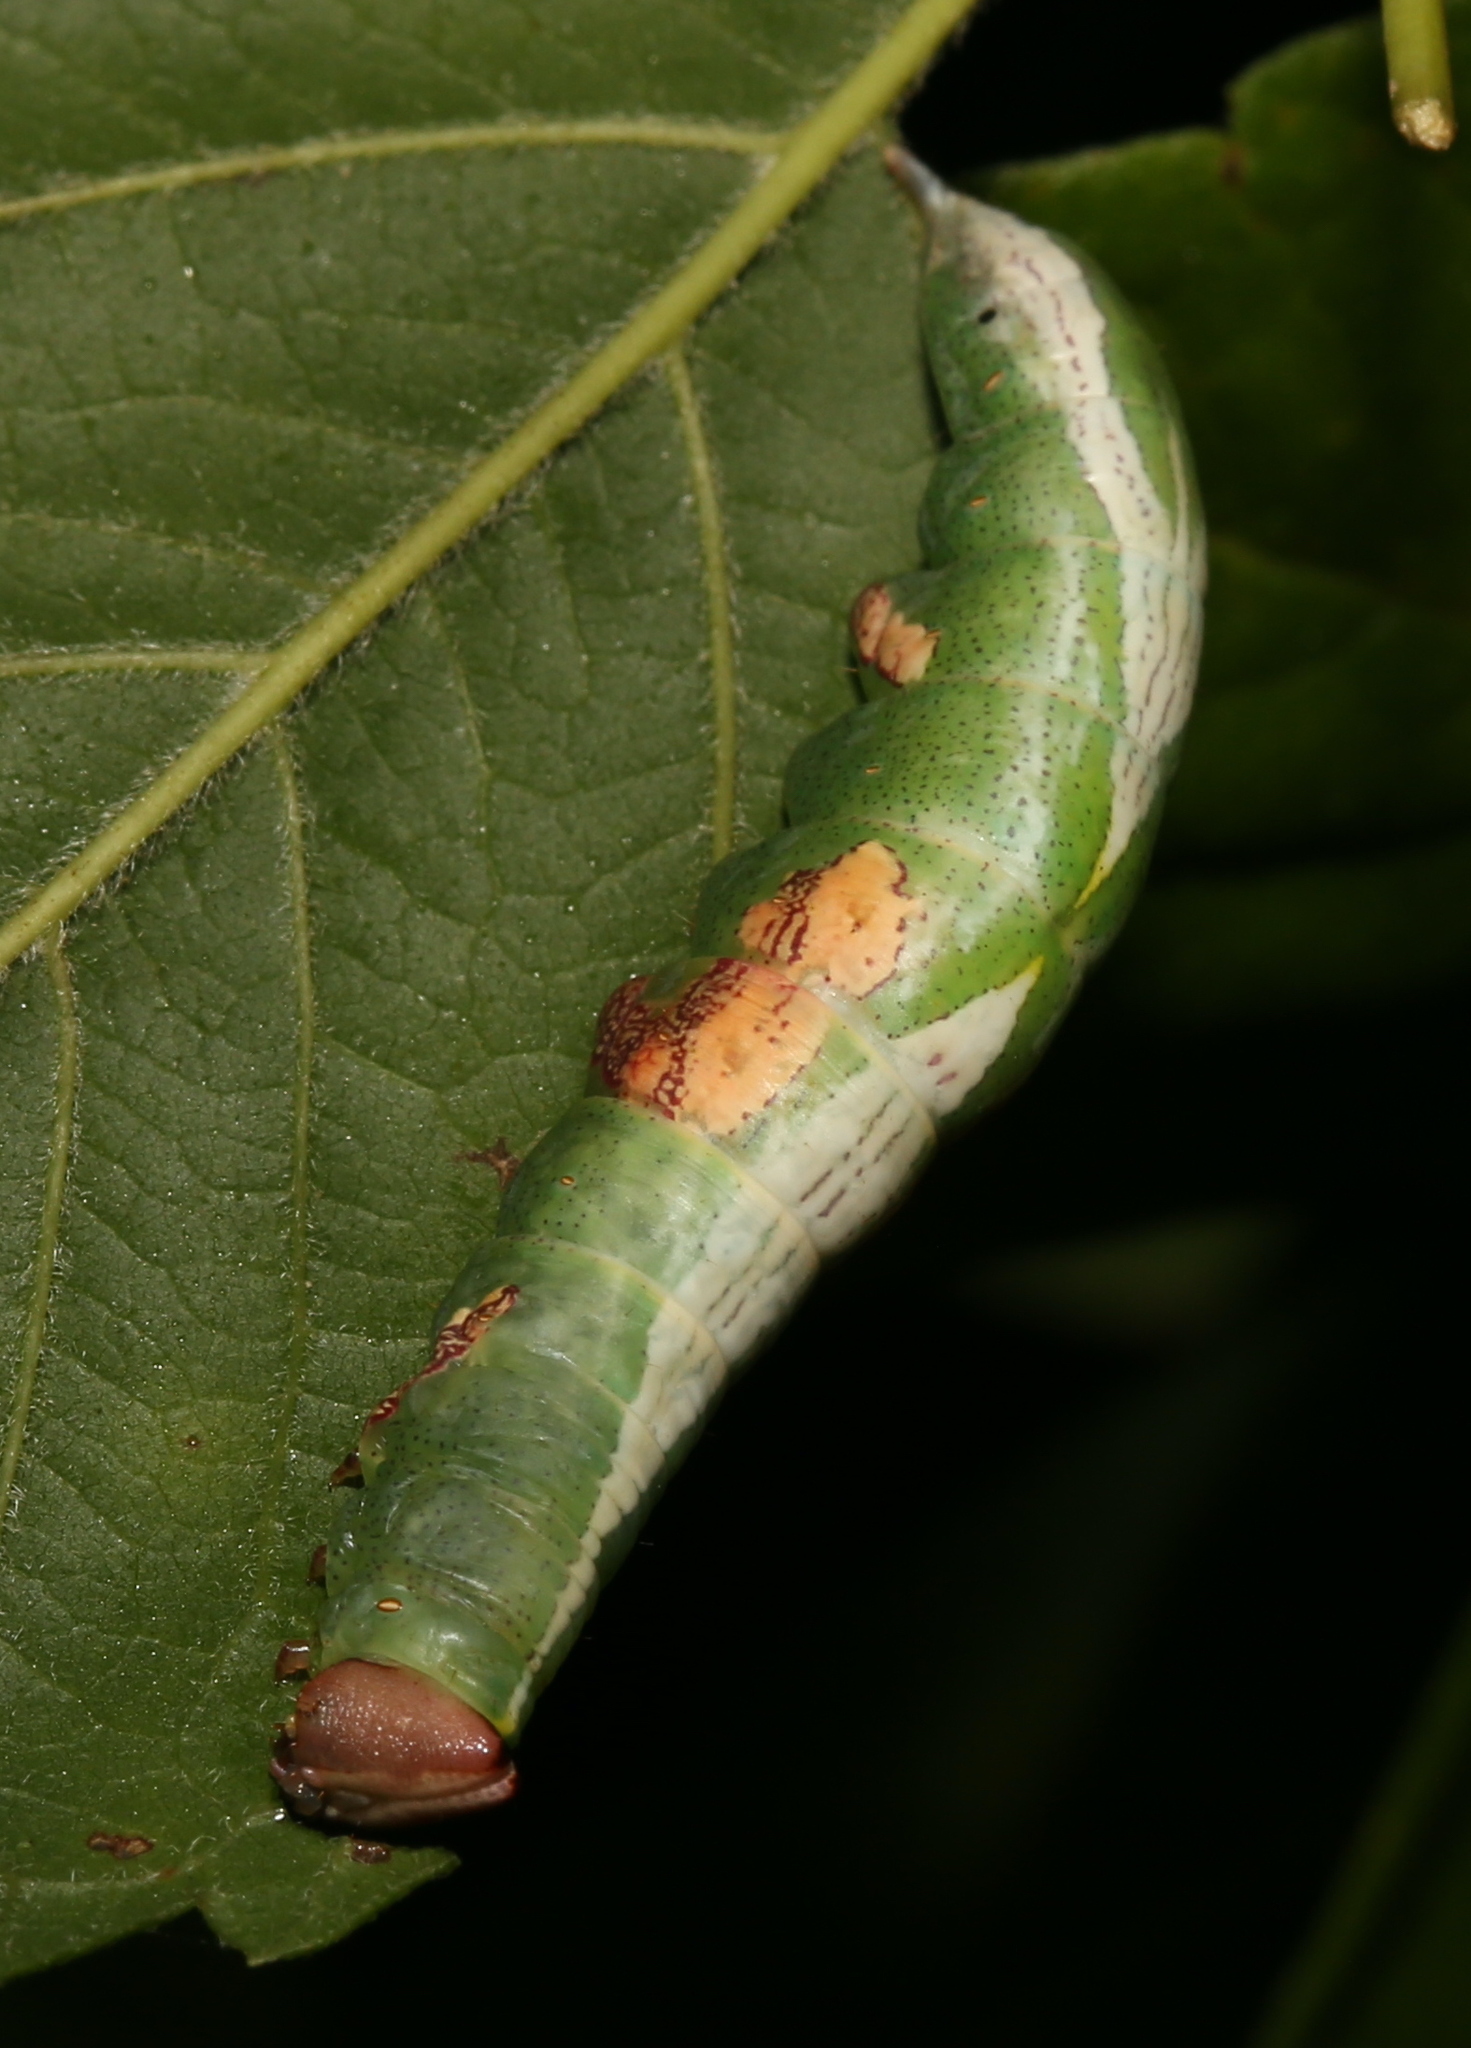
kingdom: Animalia
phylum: Arthropoda
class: Insecta
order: Lepidoptera
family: Notodontidae
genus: Disphragis
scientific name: Disphragis Cecrita biundata
